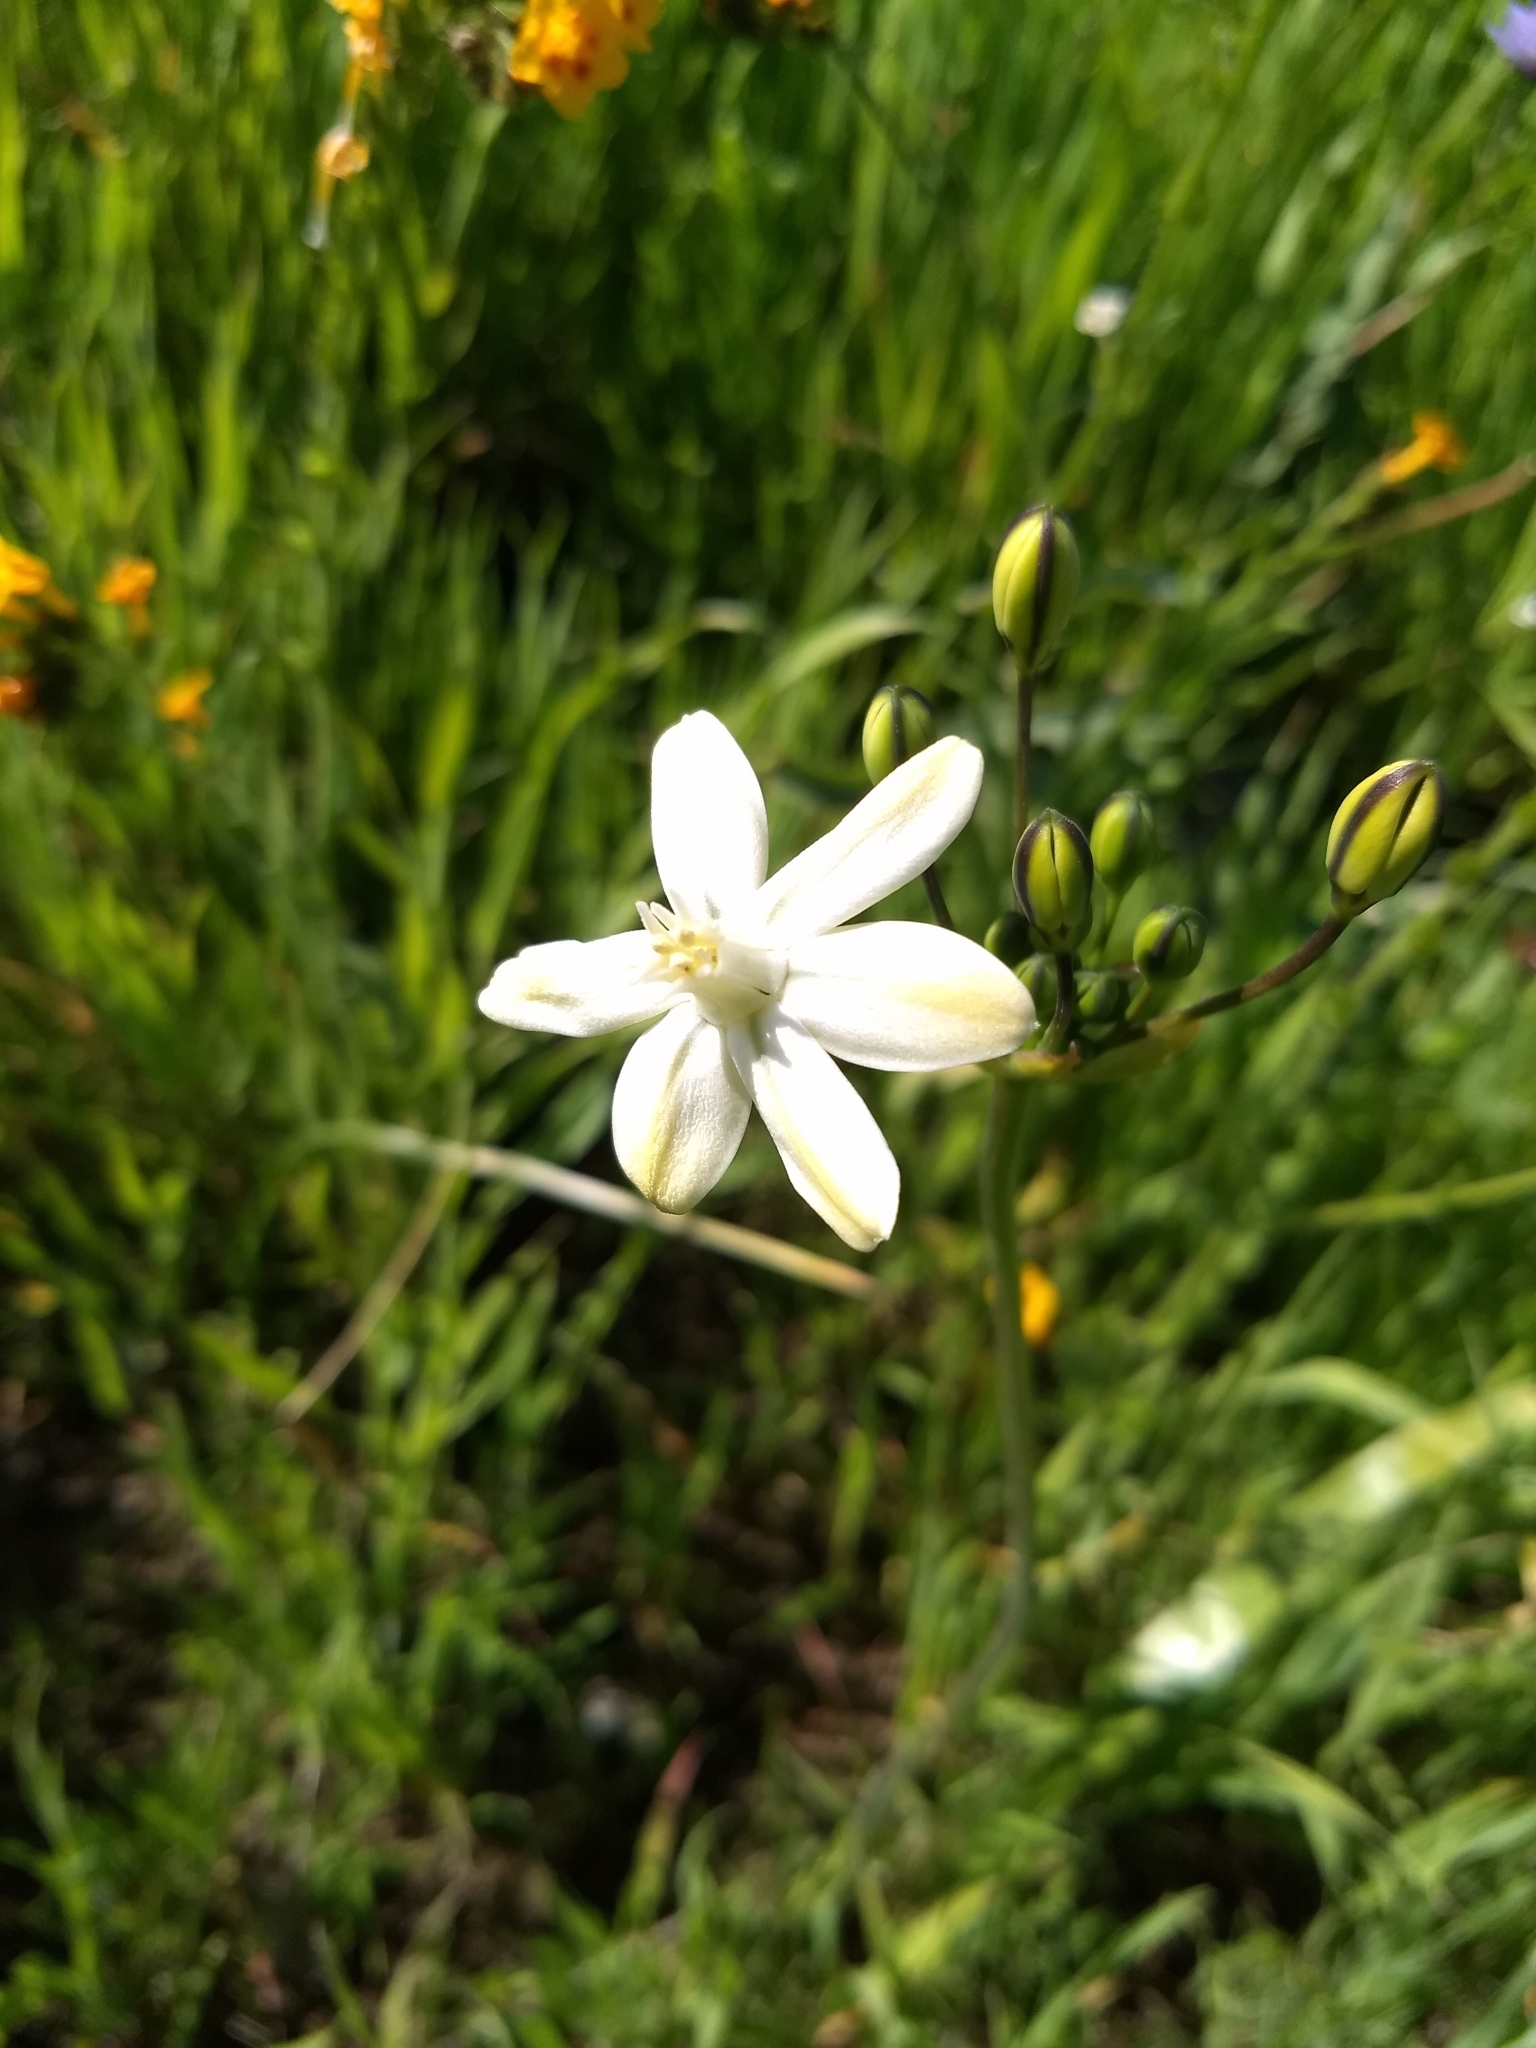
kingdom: Plantae
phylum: Tracheophyta
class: Liliopsida
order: Asparagales
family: Asparagaceae
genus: Triteleia
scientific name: Triteleia ixioides
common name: Yellow-brodiaea
